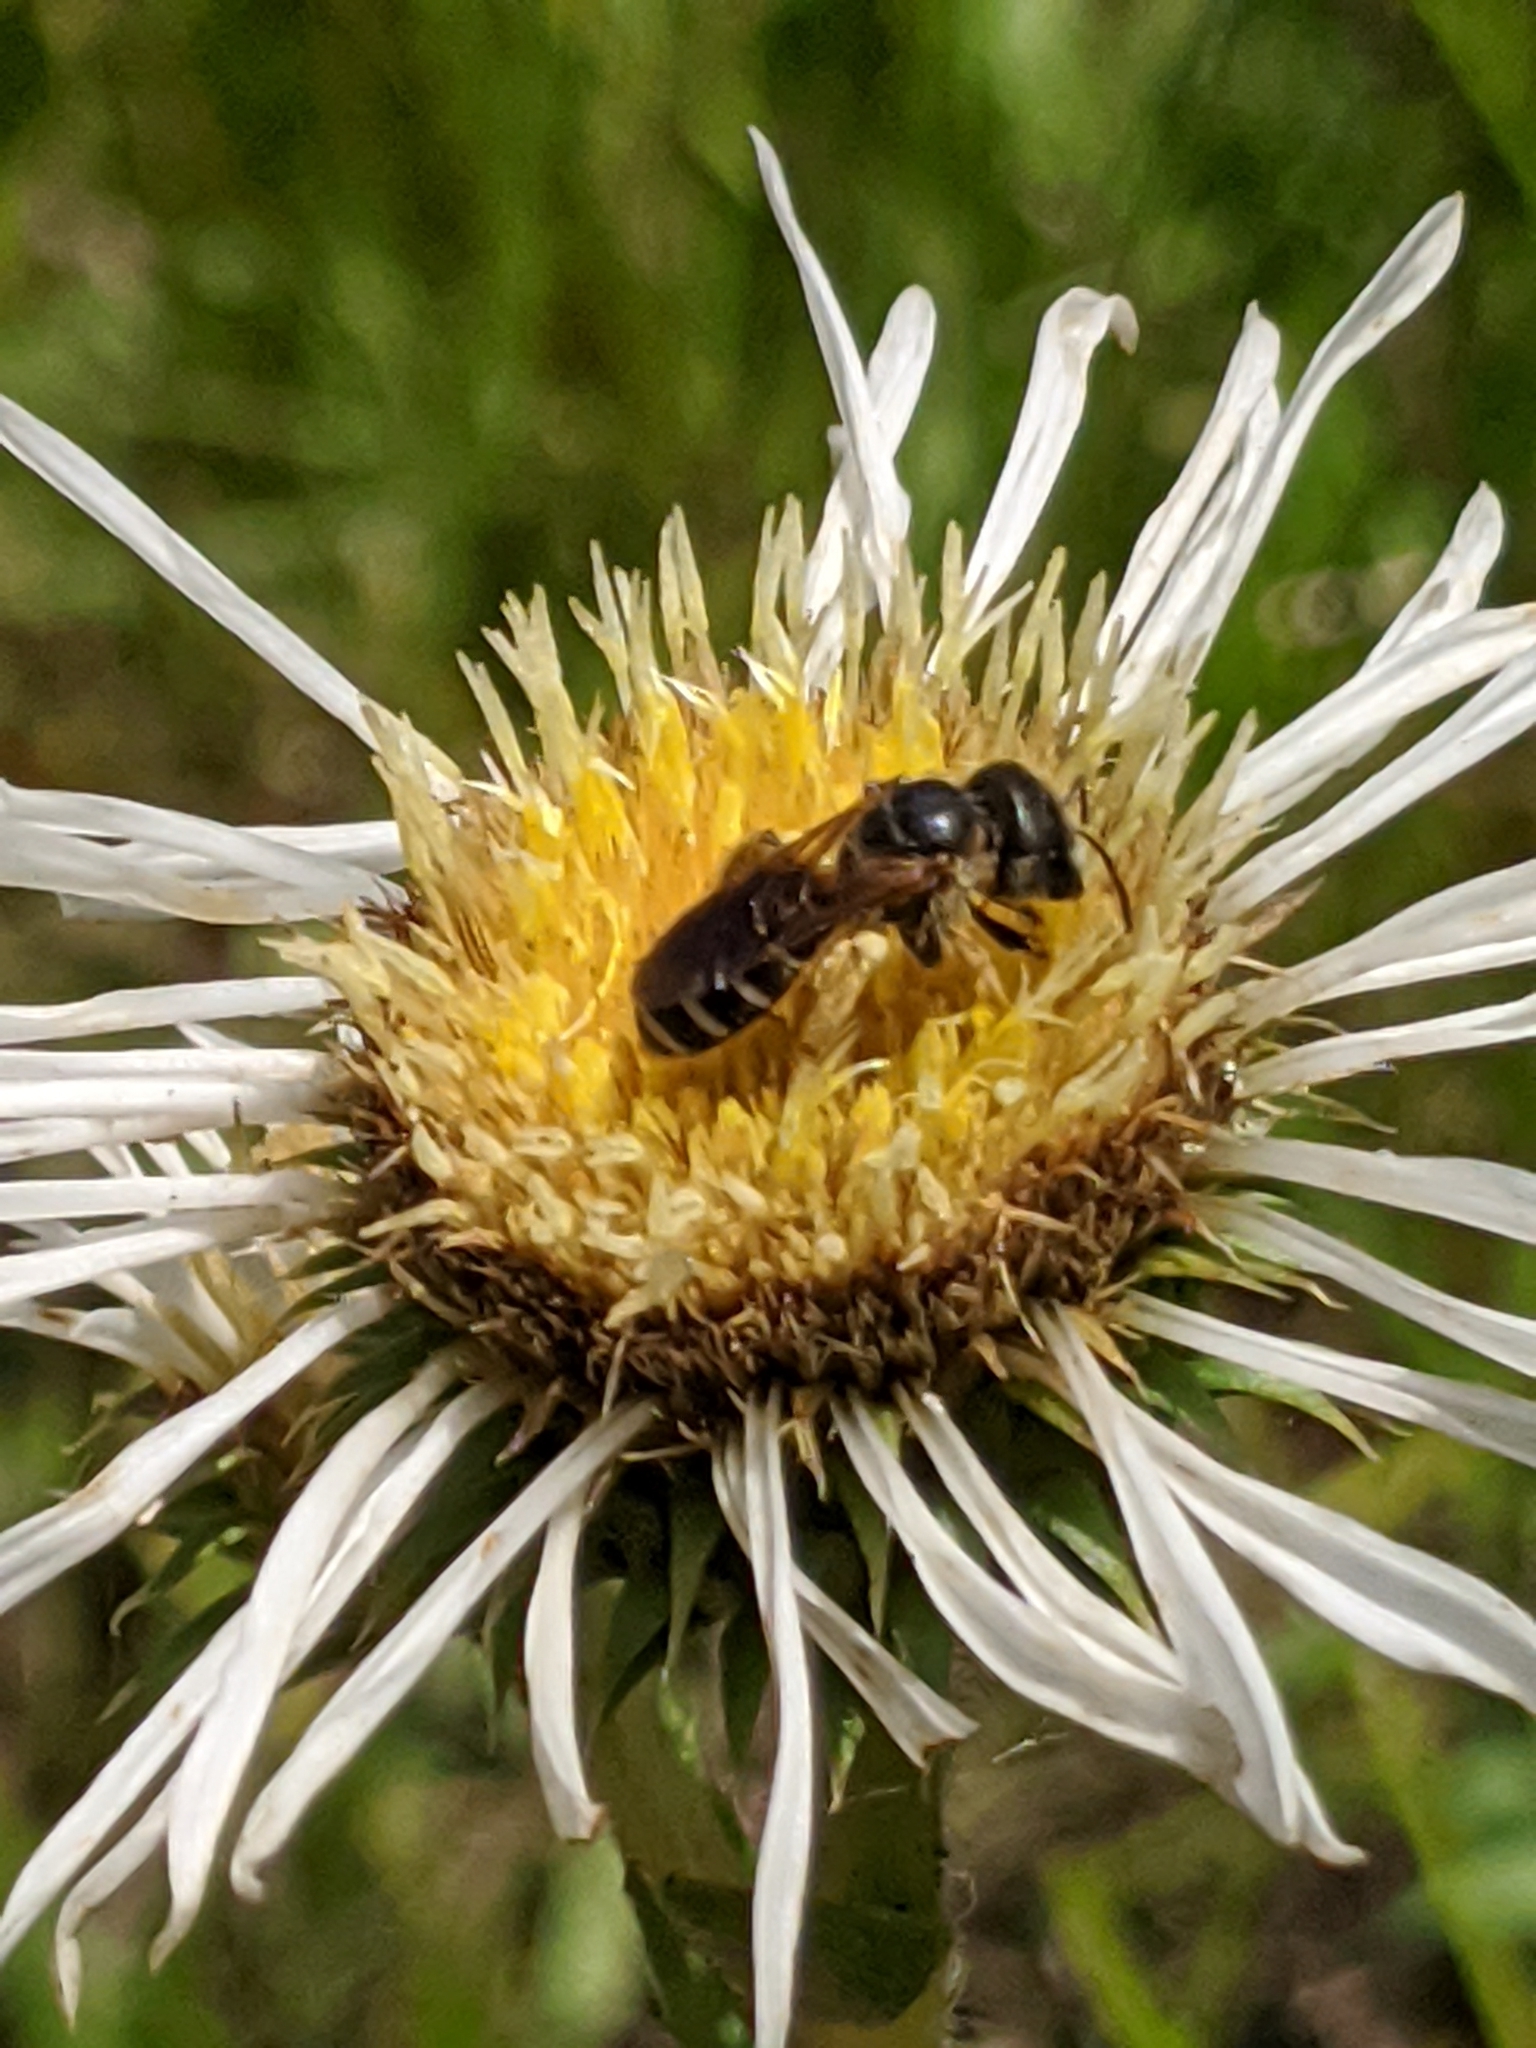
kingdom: Animalia
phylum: Arthropoda
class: Insecta
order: Hymenoptera
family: Halictidae
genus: Halictus
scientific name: Halictus poeyi
